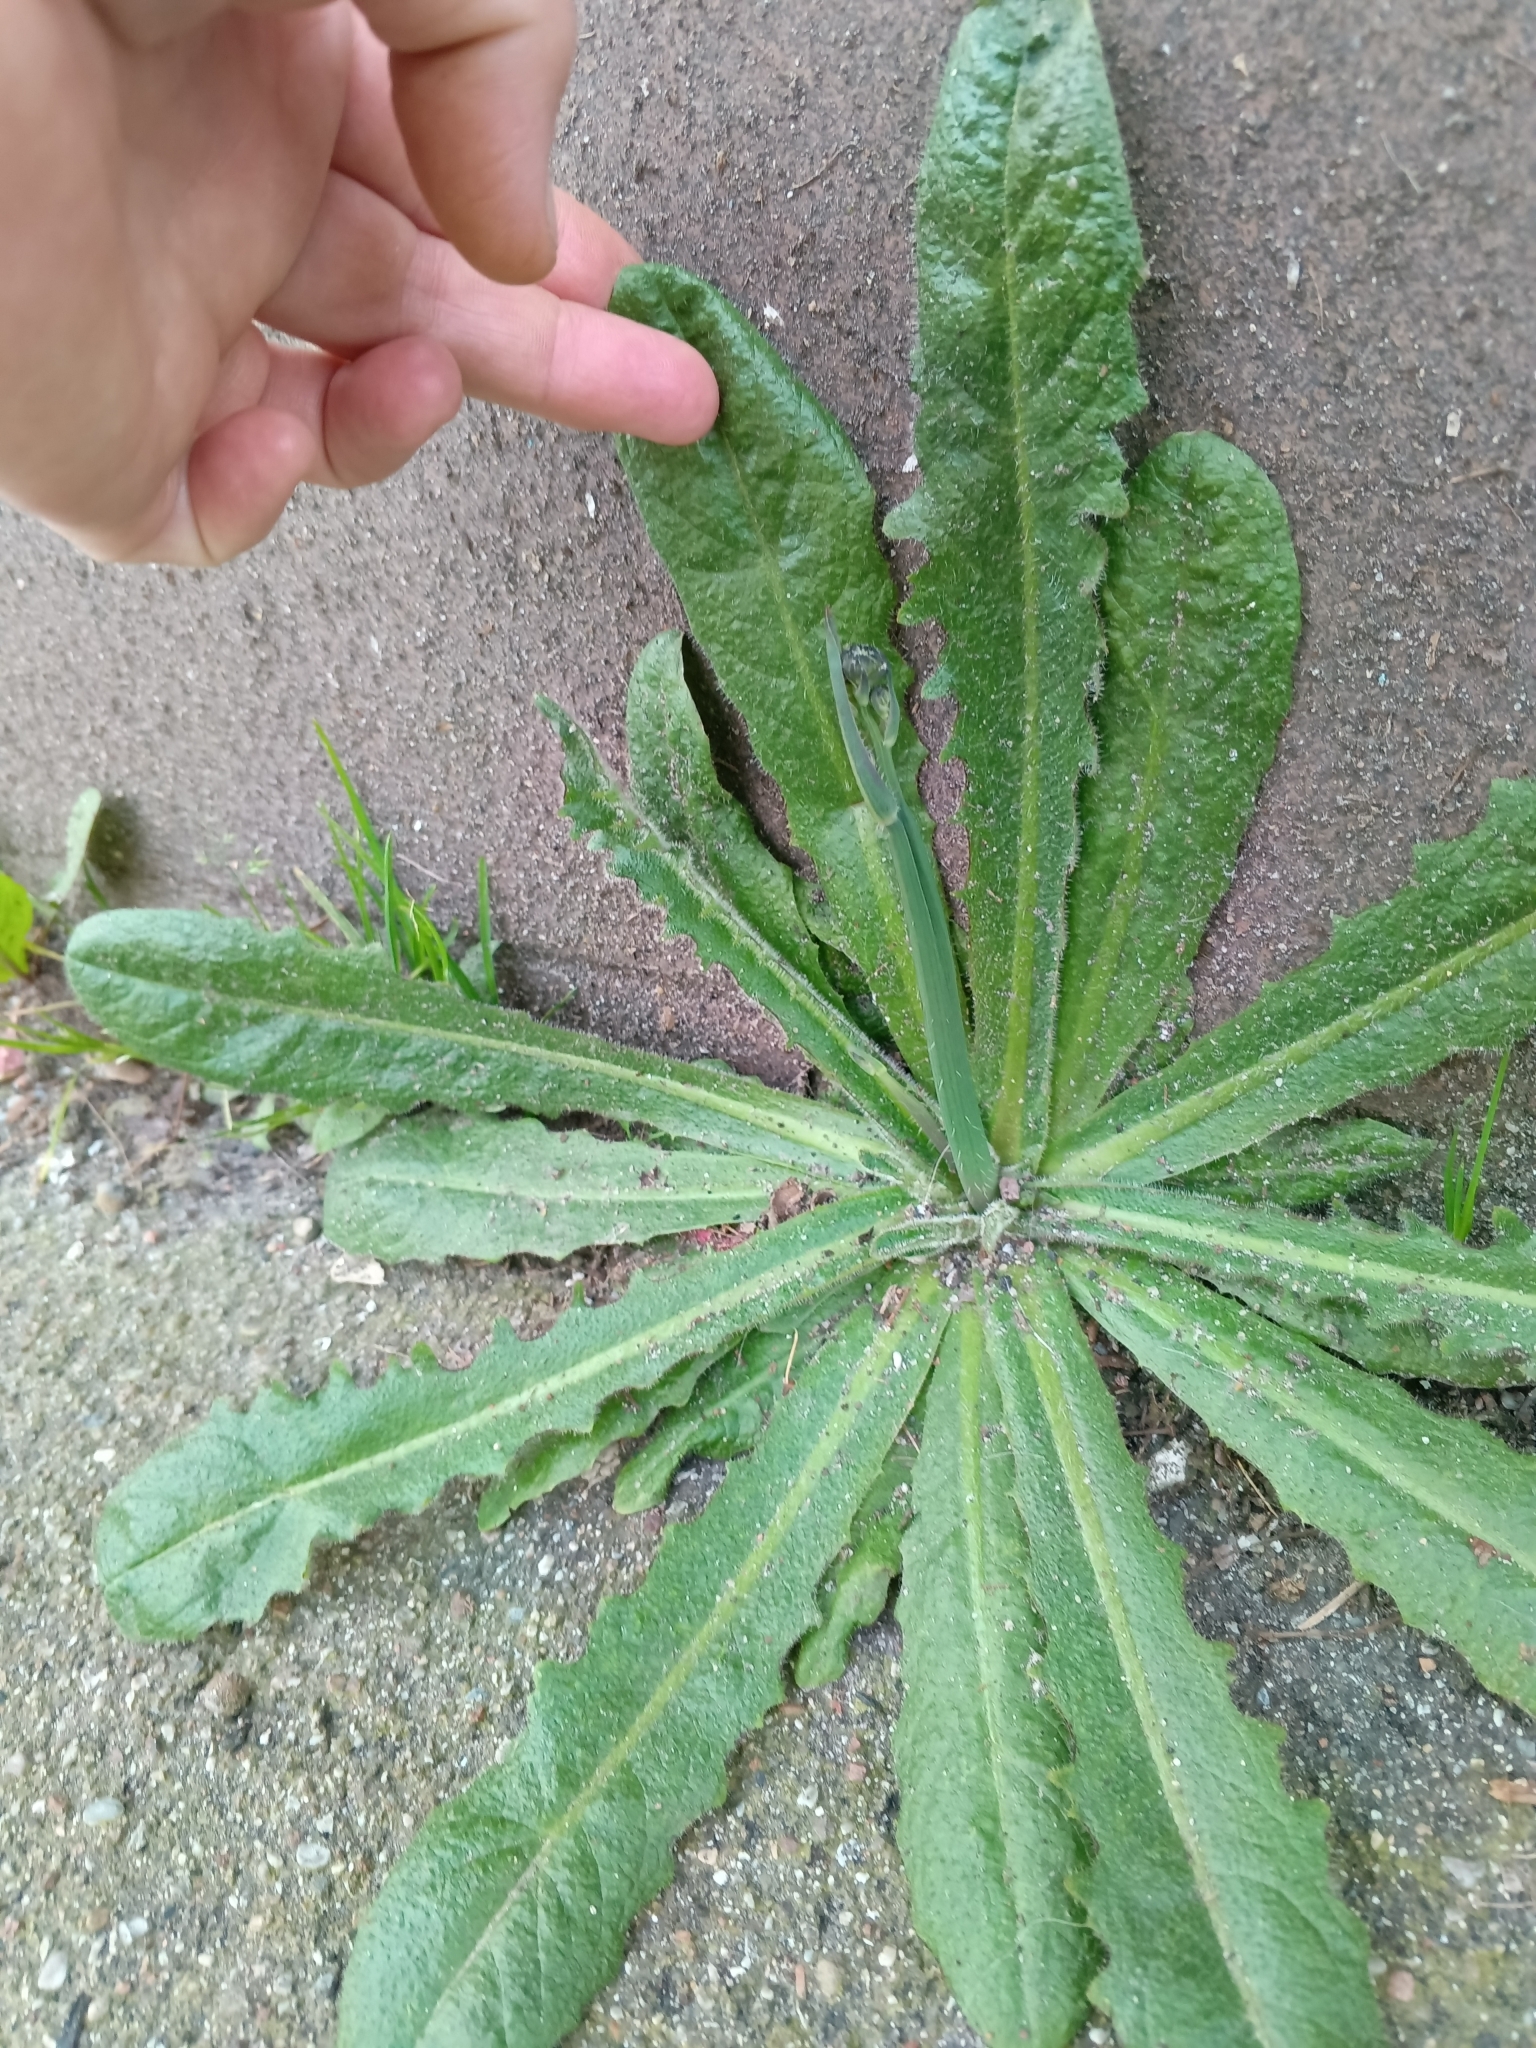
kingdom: Plantae
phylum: Tracheophyta
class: Magnoliopsida
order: Asterales
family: Asteraceae
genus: Hypochaeris
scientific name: Hypochaeris radicata
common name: Flatweed
